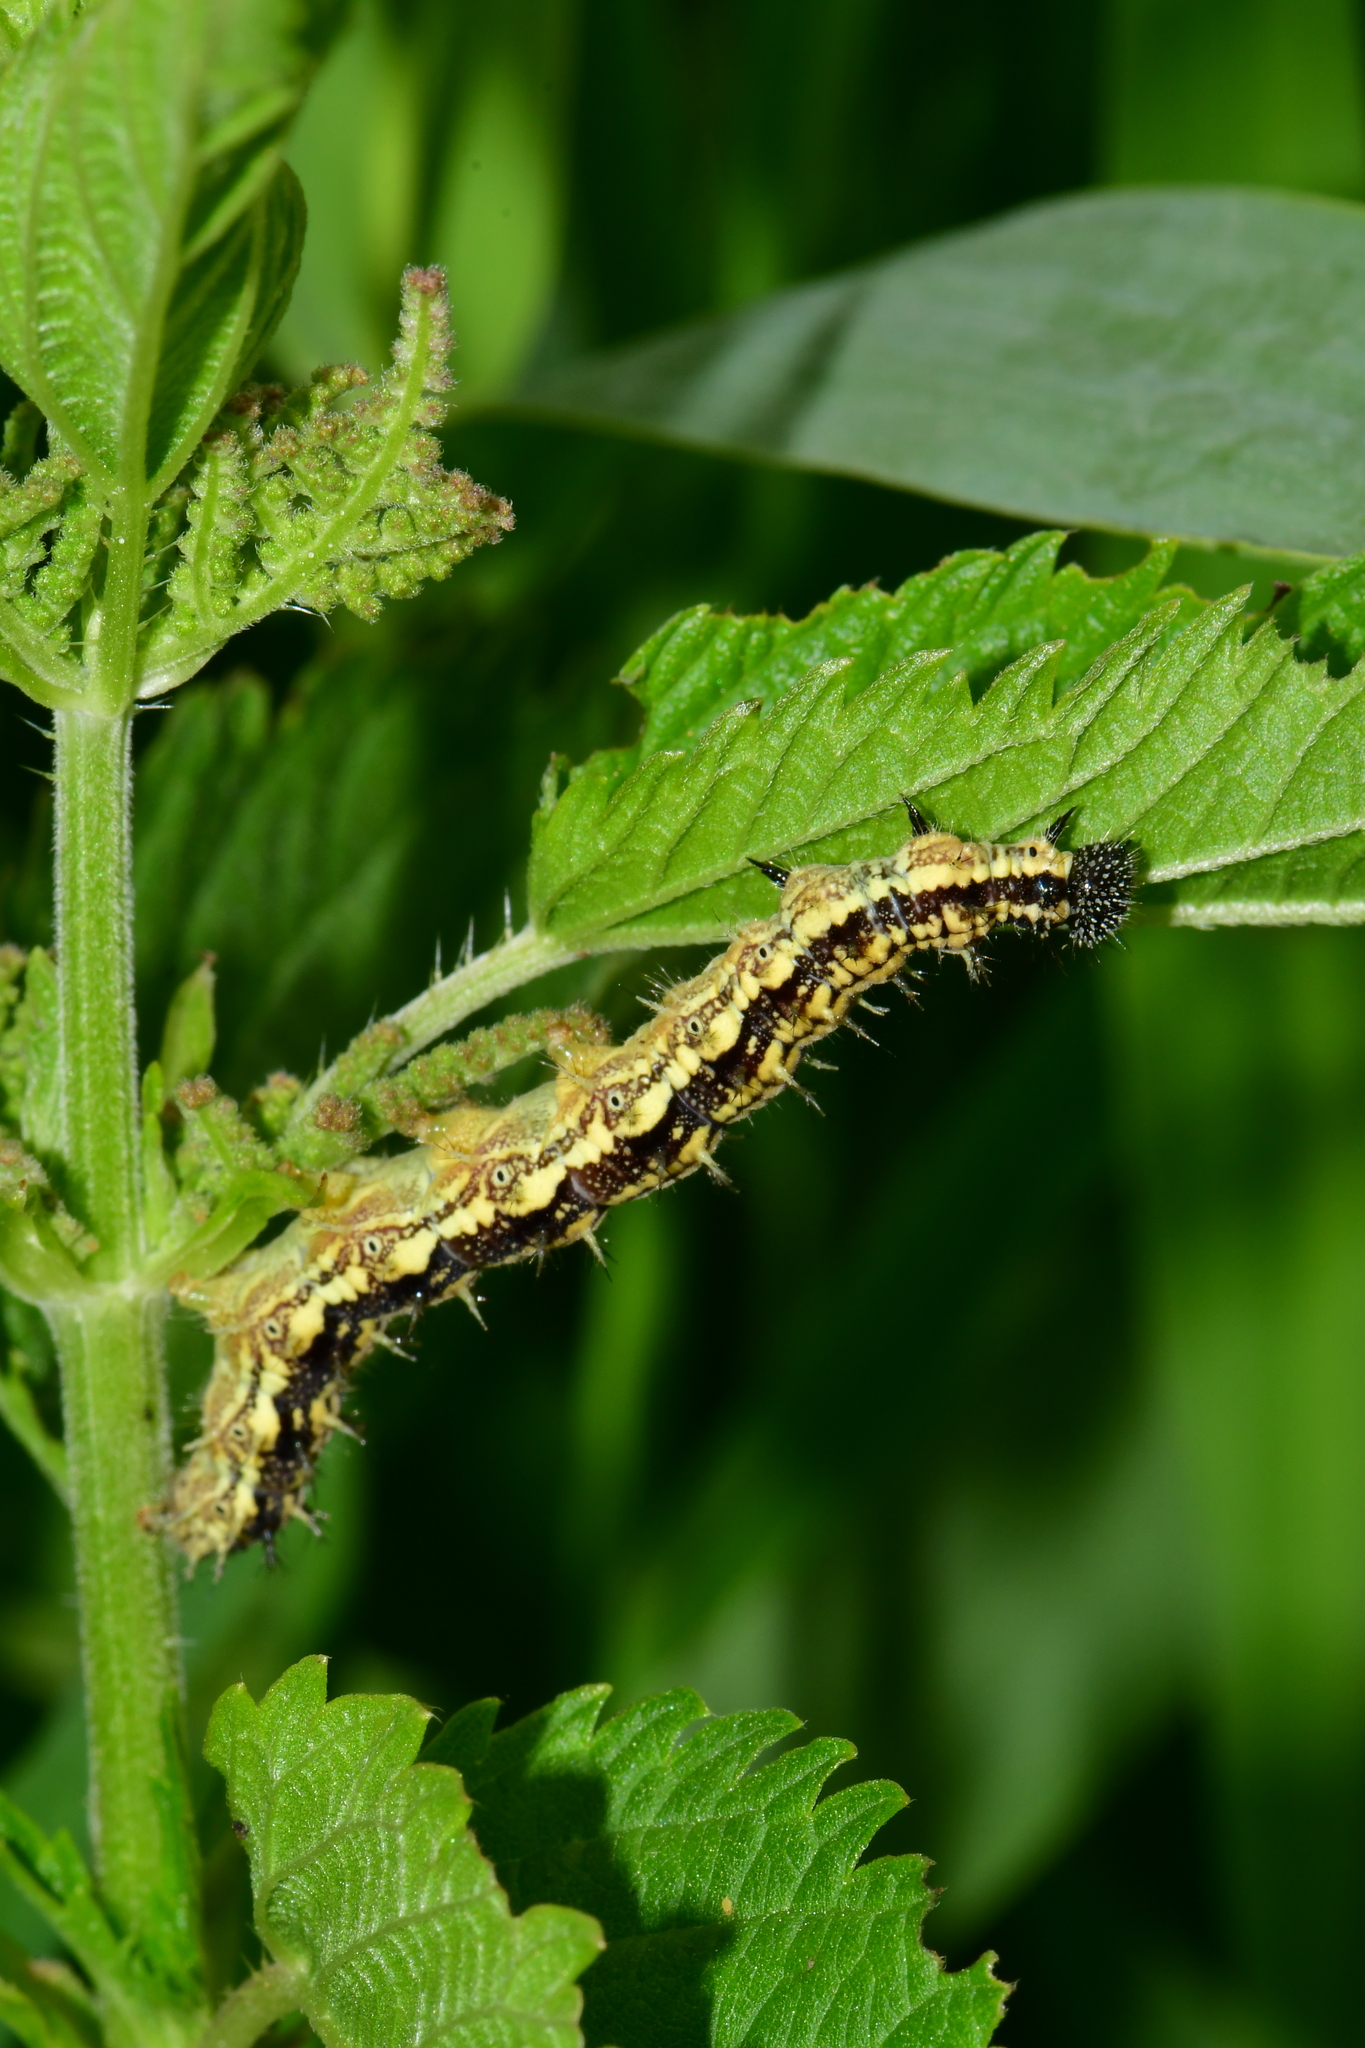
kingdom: Animalia
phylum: Arthropoda
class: Insecta
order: Lepidoptera
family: Nymphalidae
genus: Aglais
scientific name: Aglais urticae
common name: Small tortoiseshell
